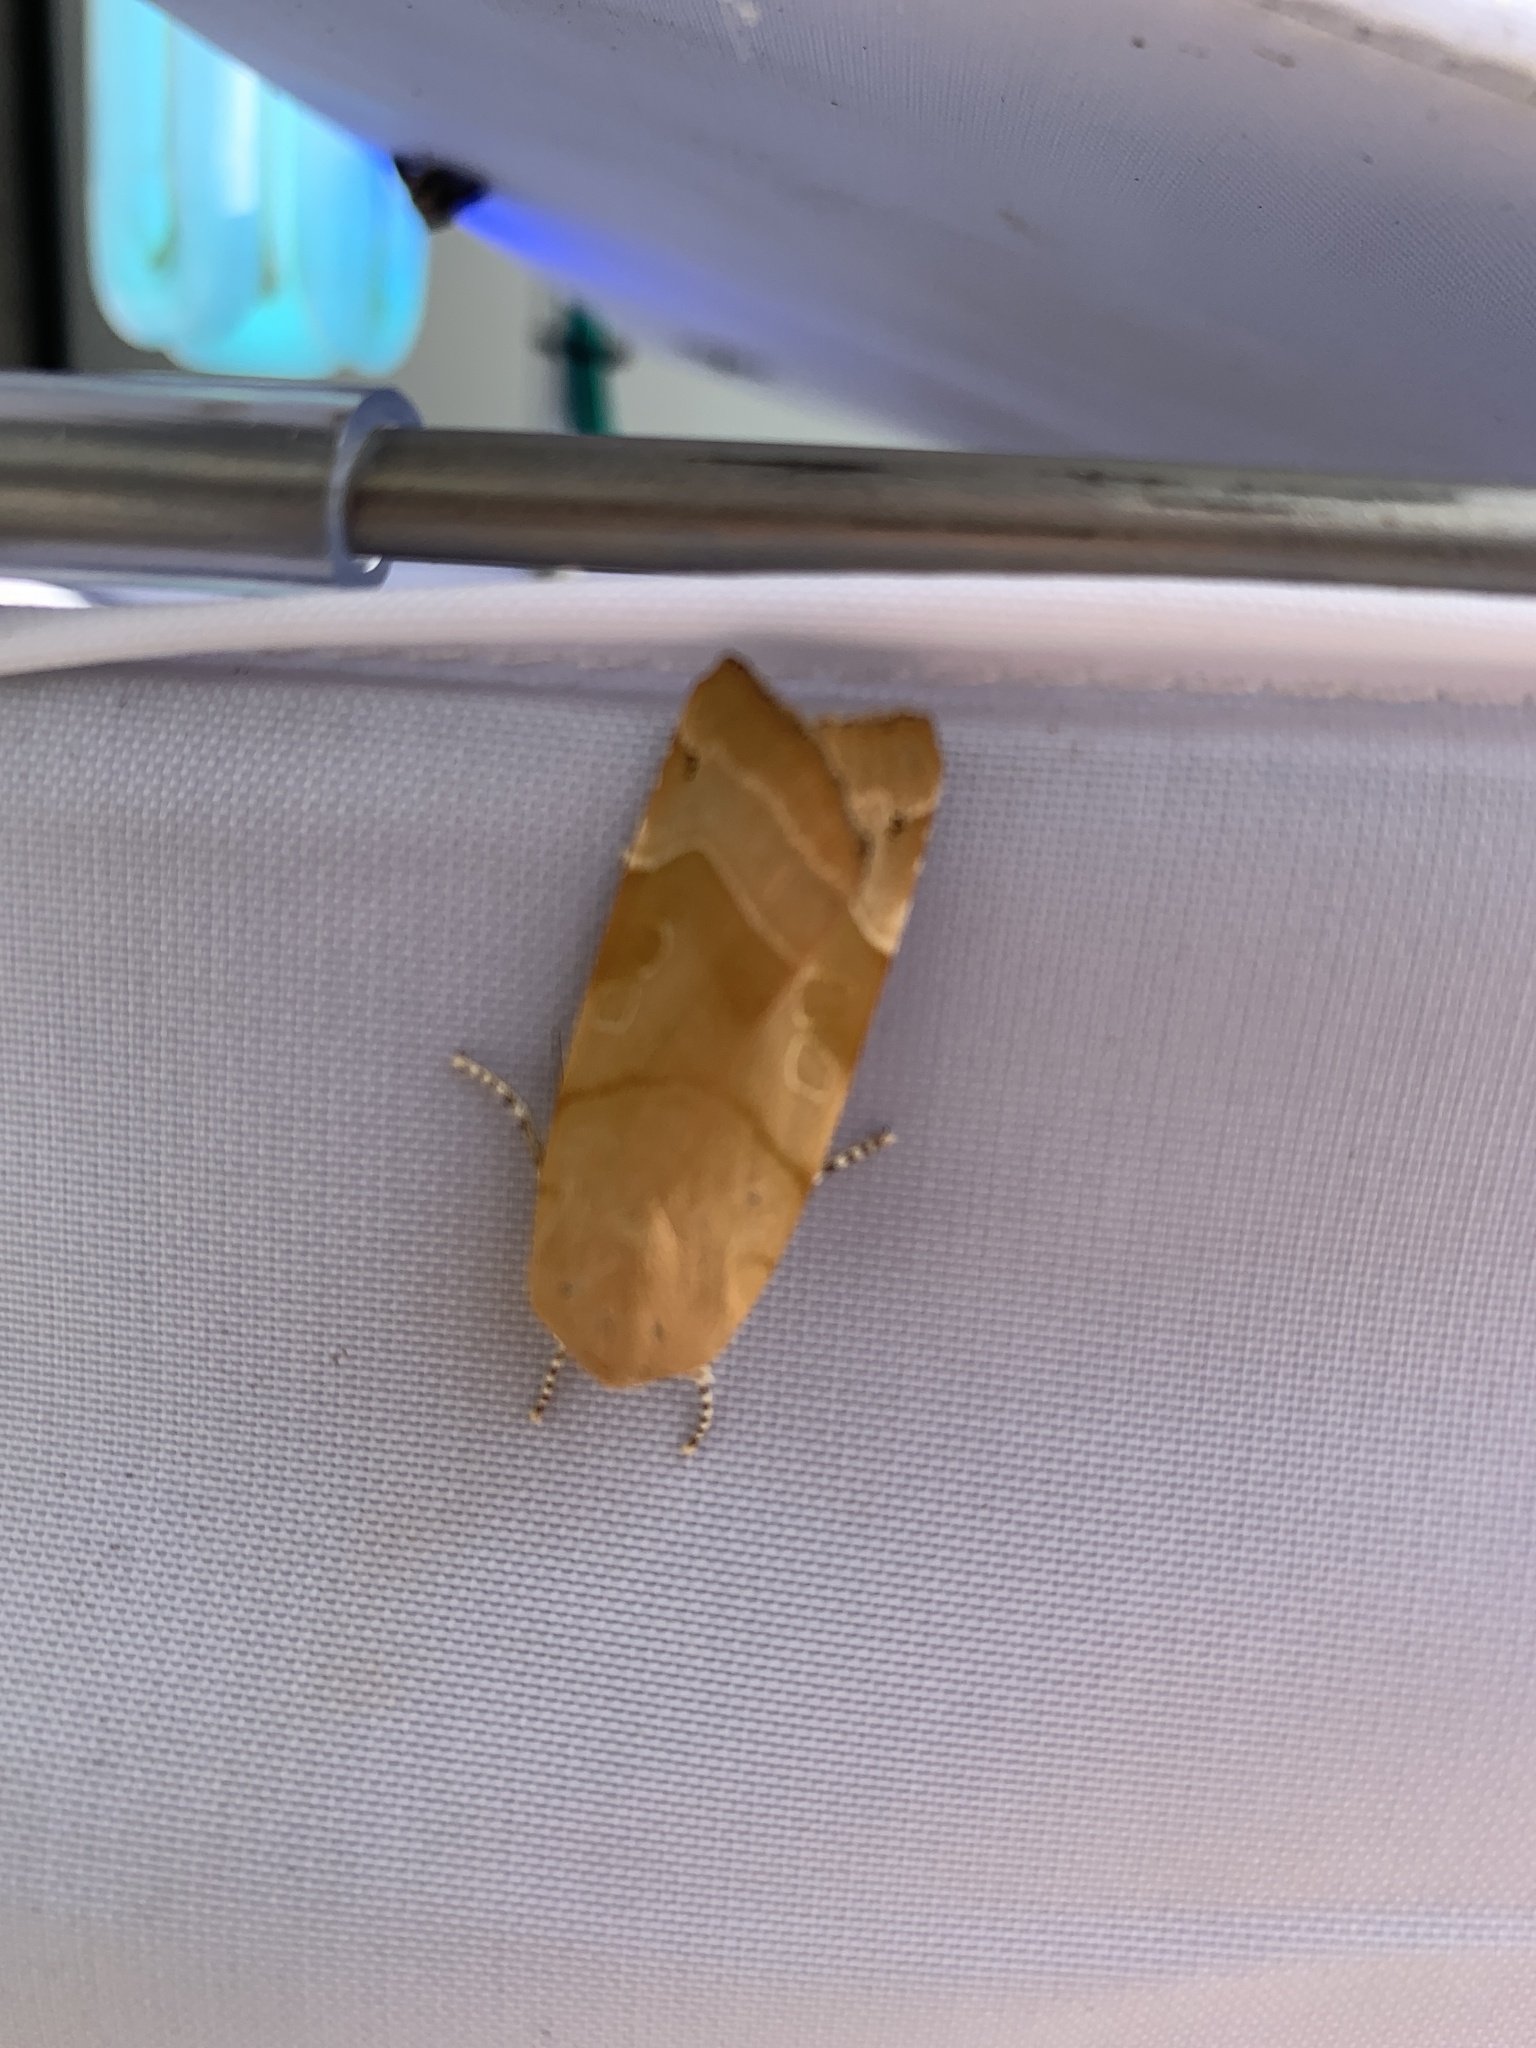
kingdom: Animalia
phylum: Arthropoda
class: Insecta
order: Lepidoptera
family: Noctuidae
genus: Noctua
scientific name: Noctua fimbriata
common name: Broad-bordered yellow underwing
